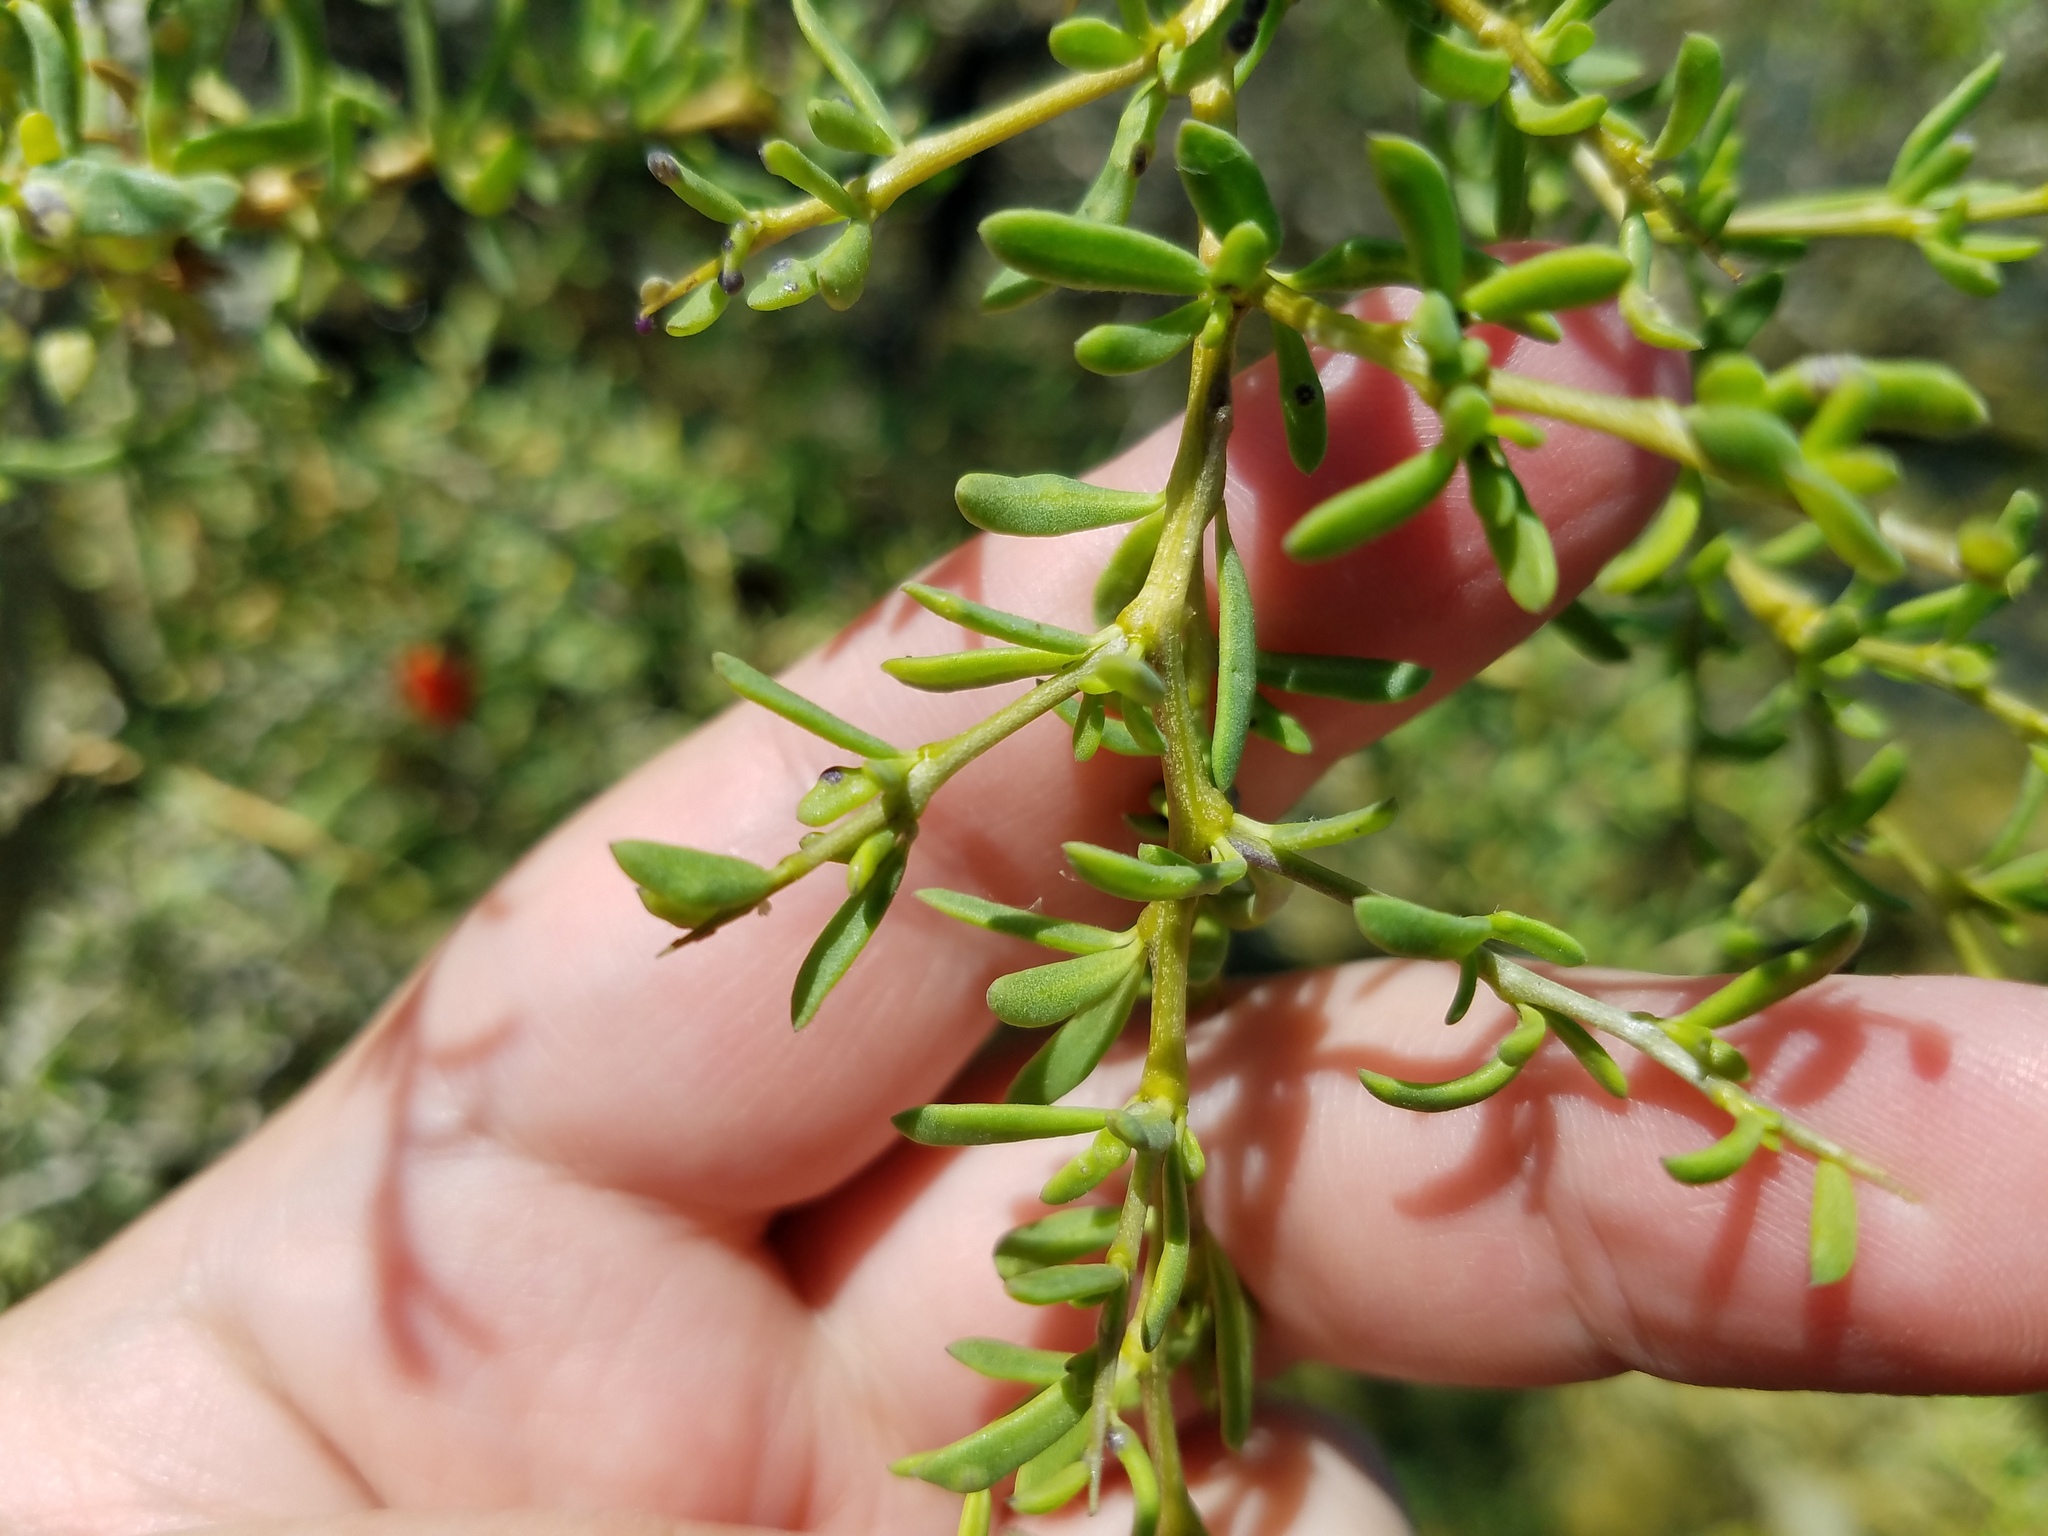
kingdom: Plantae
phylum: Tracheophyta
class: Magnoliopsida
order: Solanales
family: Solanaceae
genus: Lycium
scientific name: Lycium carolinianum
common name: Christmasberry
